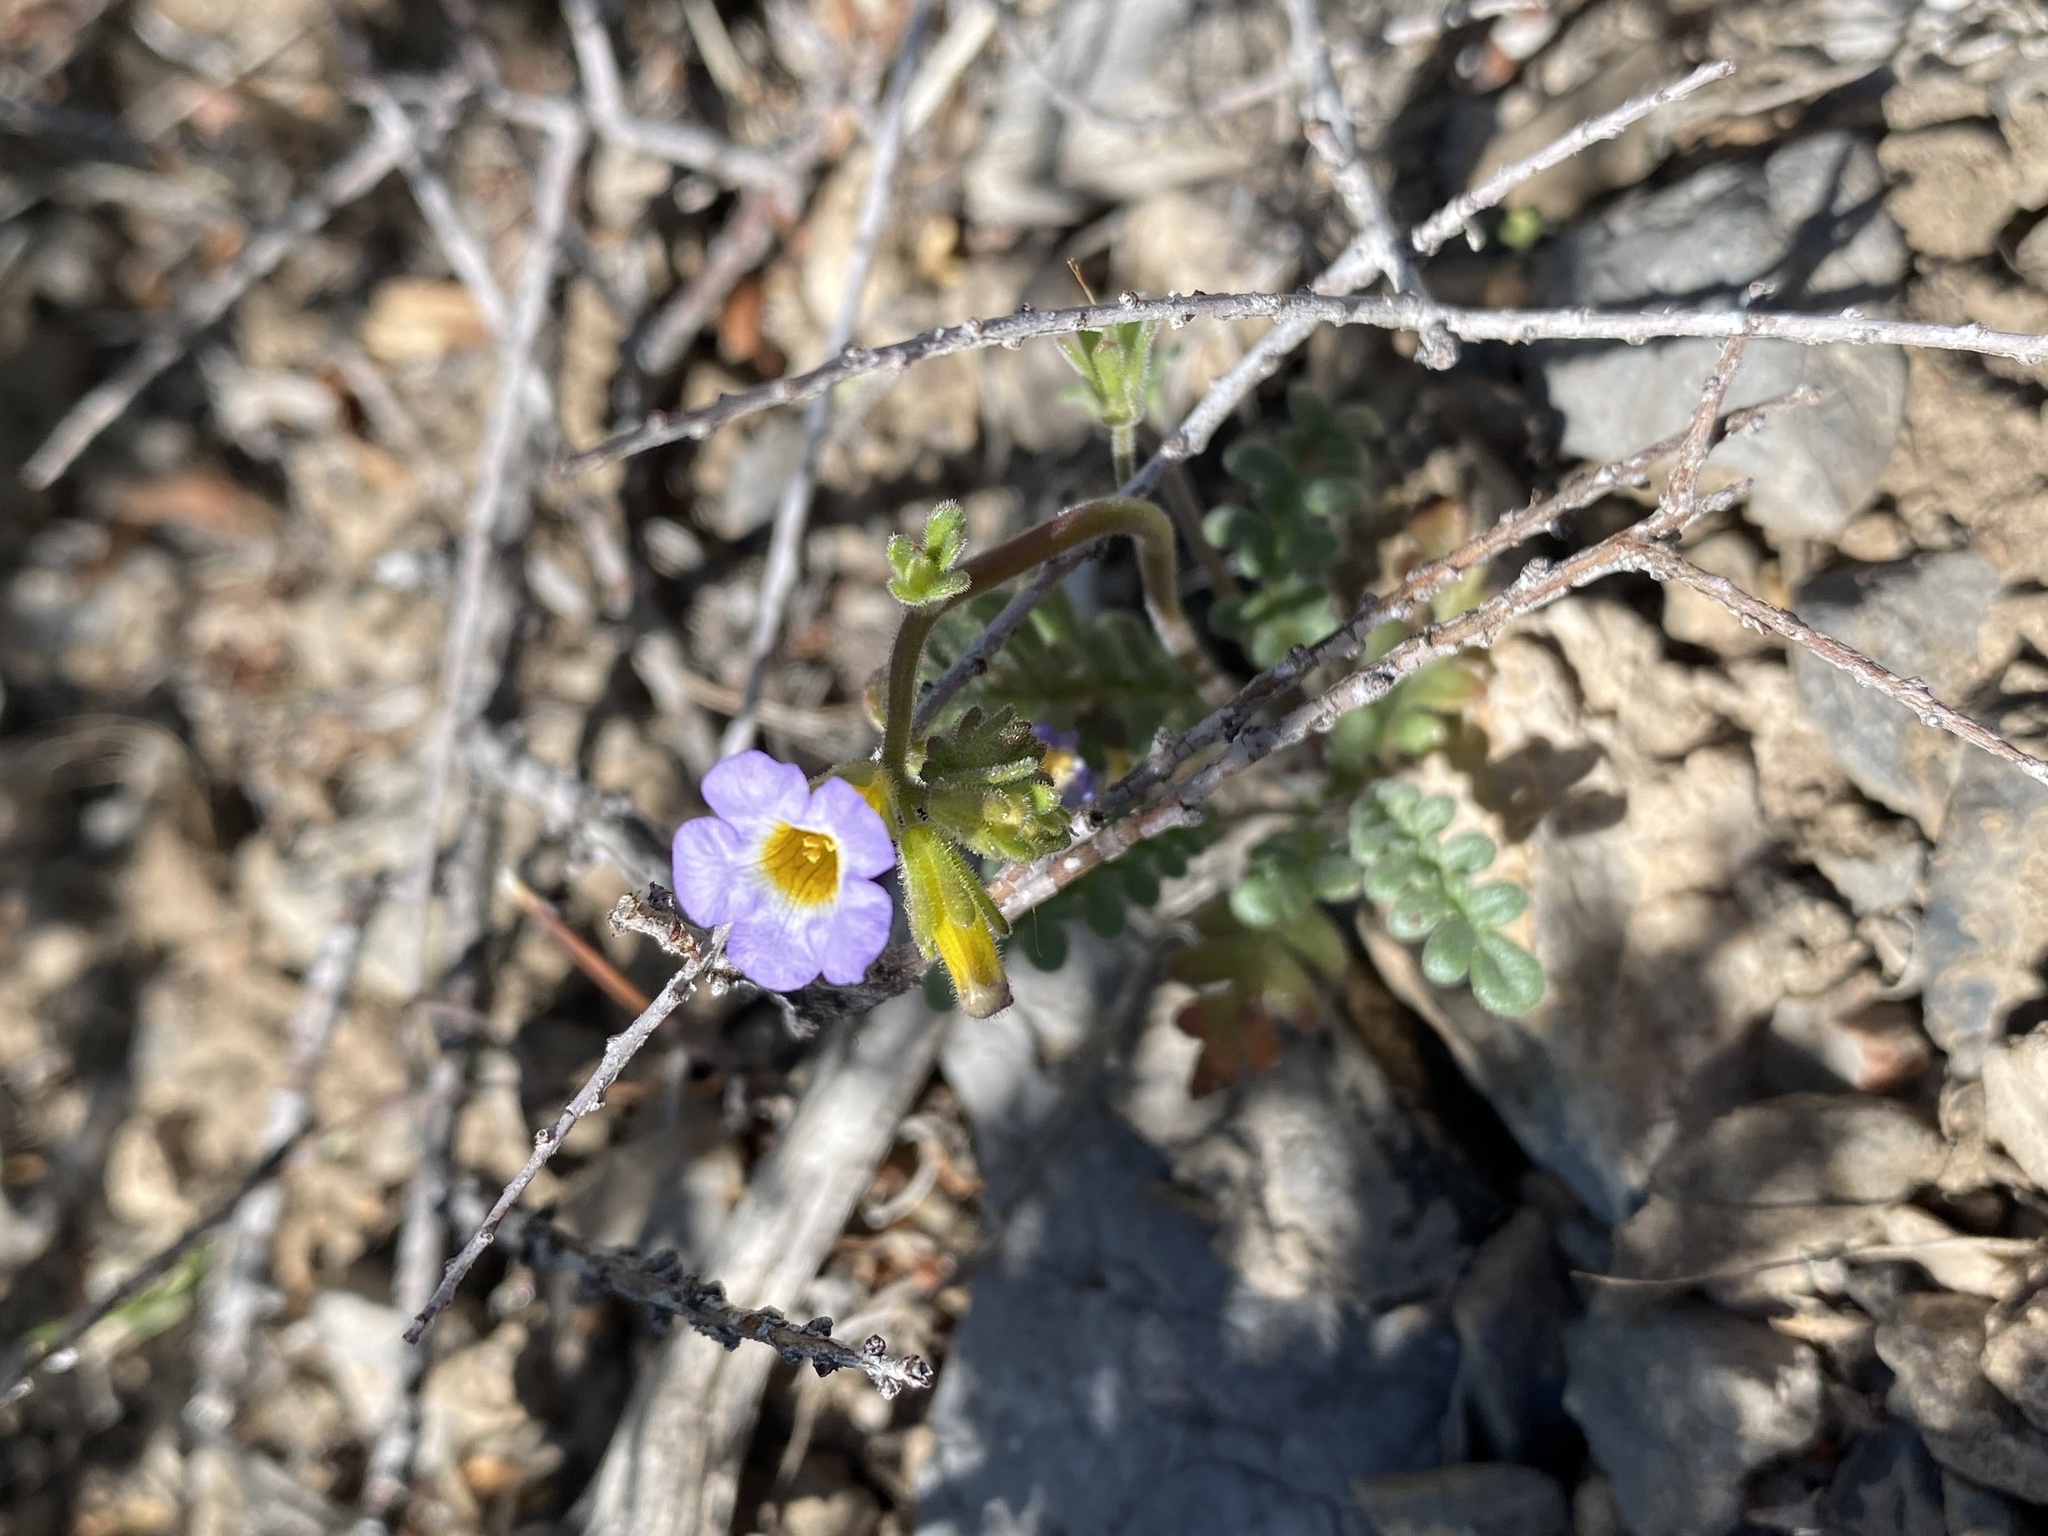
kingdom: Plantae
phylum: Tracheophyta
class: Magnoliopsida
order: Boraginales
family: Hydrophyllaceae
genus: Phacelia
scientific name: Phacelia fremontii
